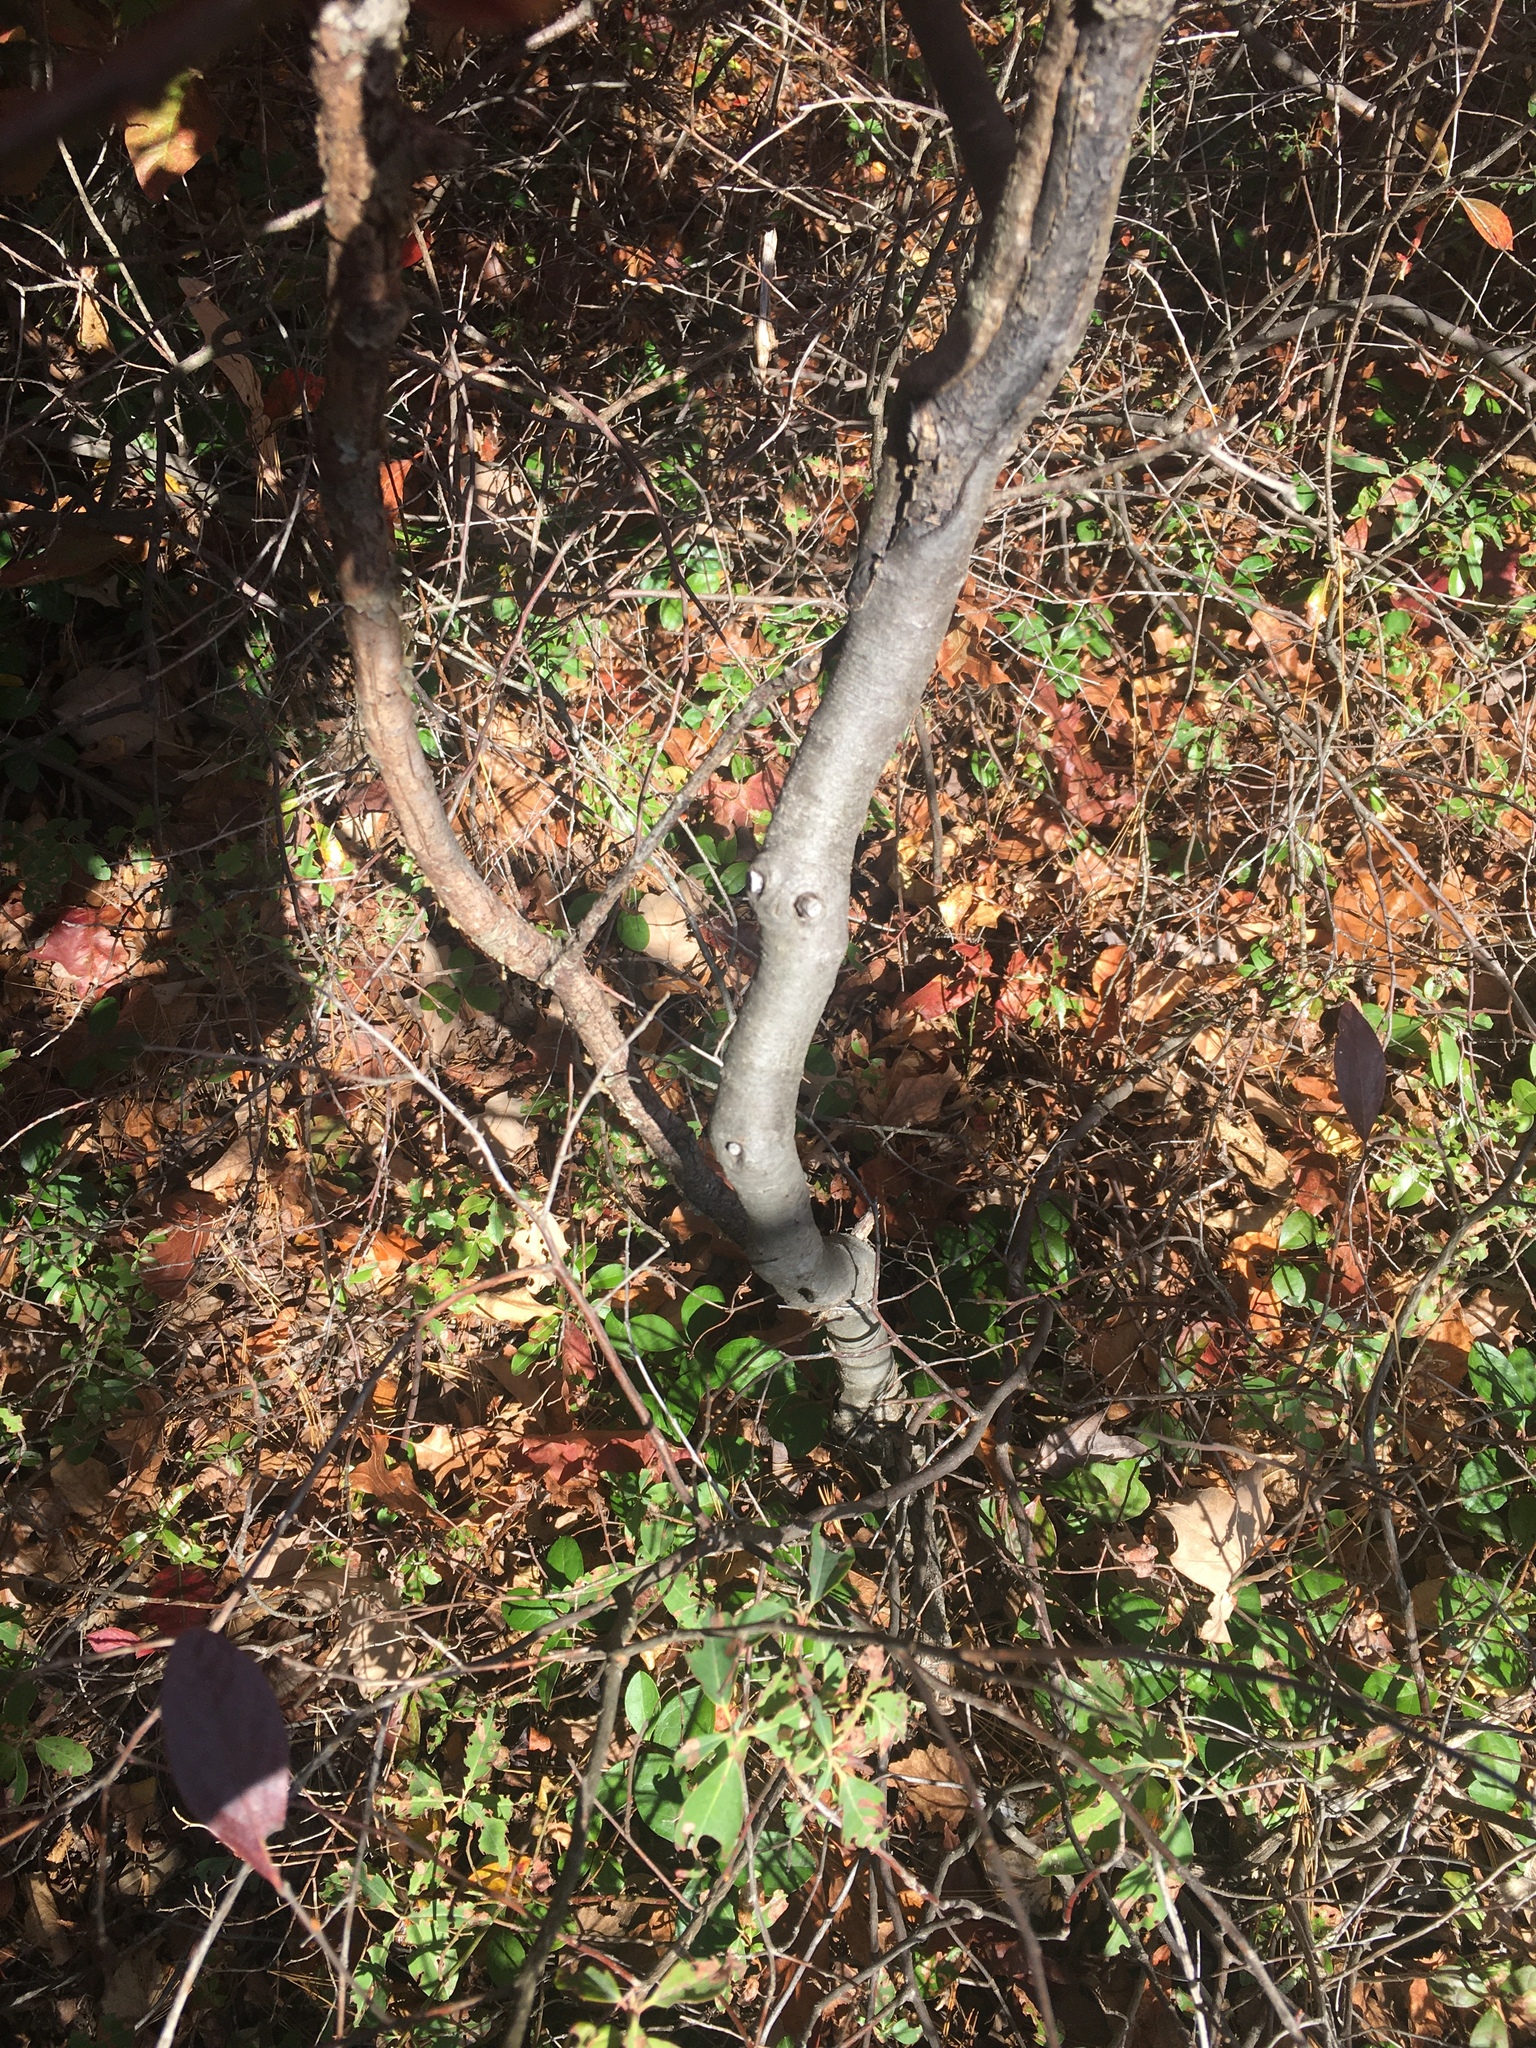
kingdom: Plantae
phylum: Tracheophyta
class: Magnoliopsida
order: Fagales
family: Fagaceae
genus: Quercus
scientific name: Quercus rubra
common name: Red oak
